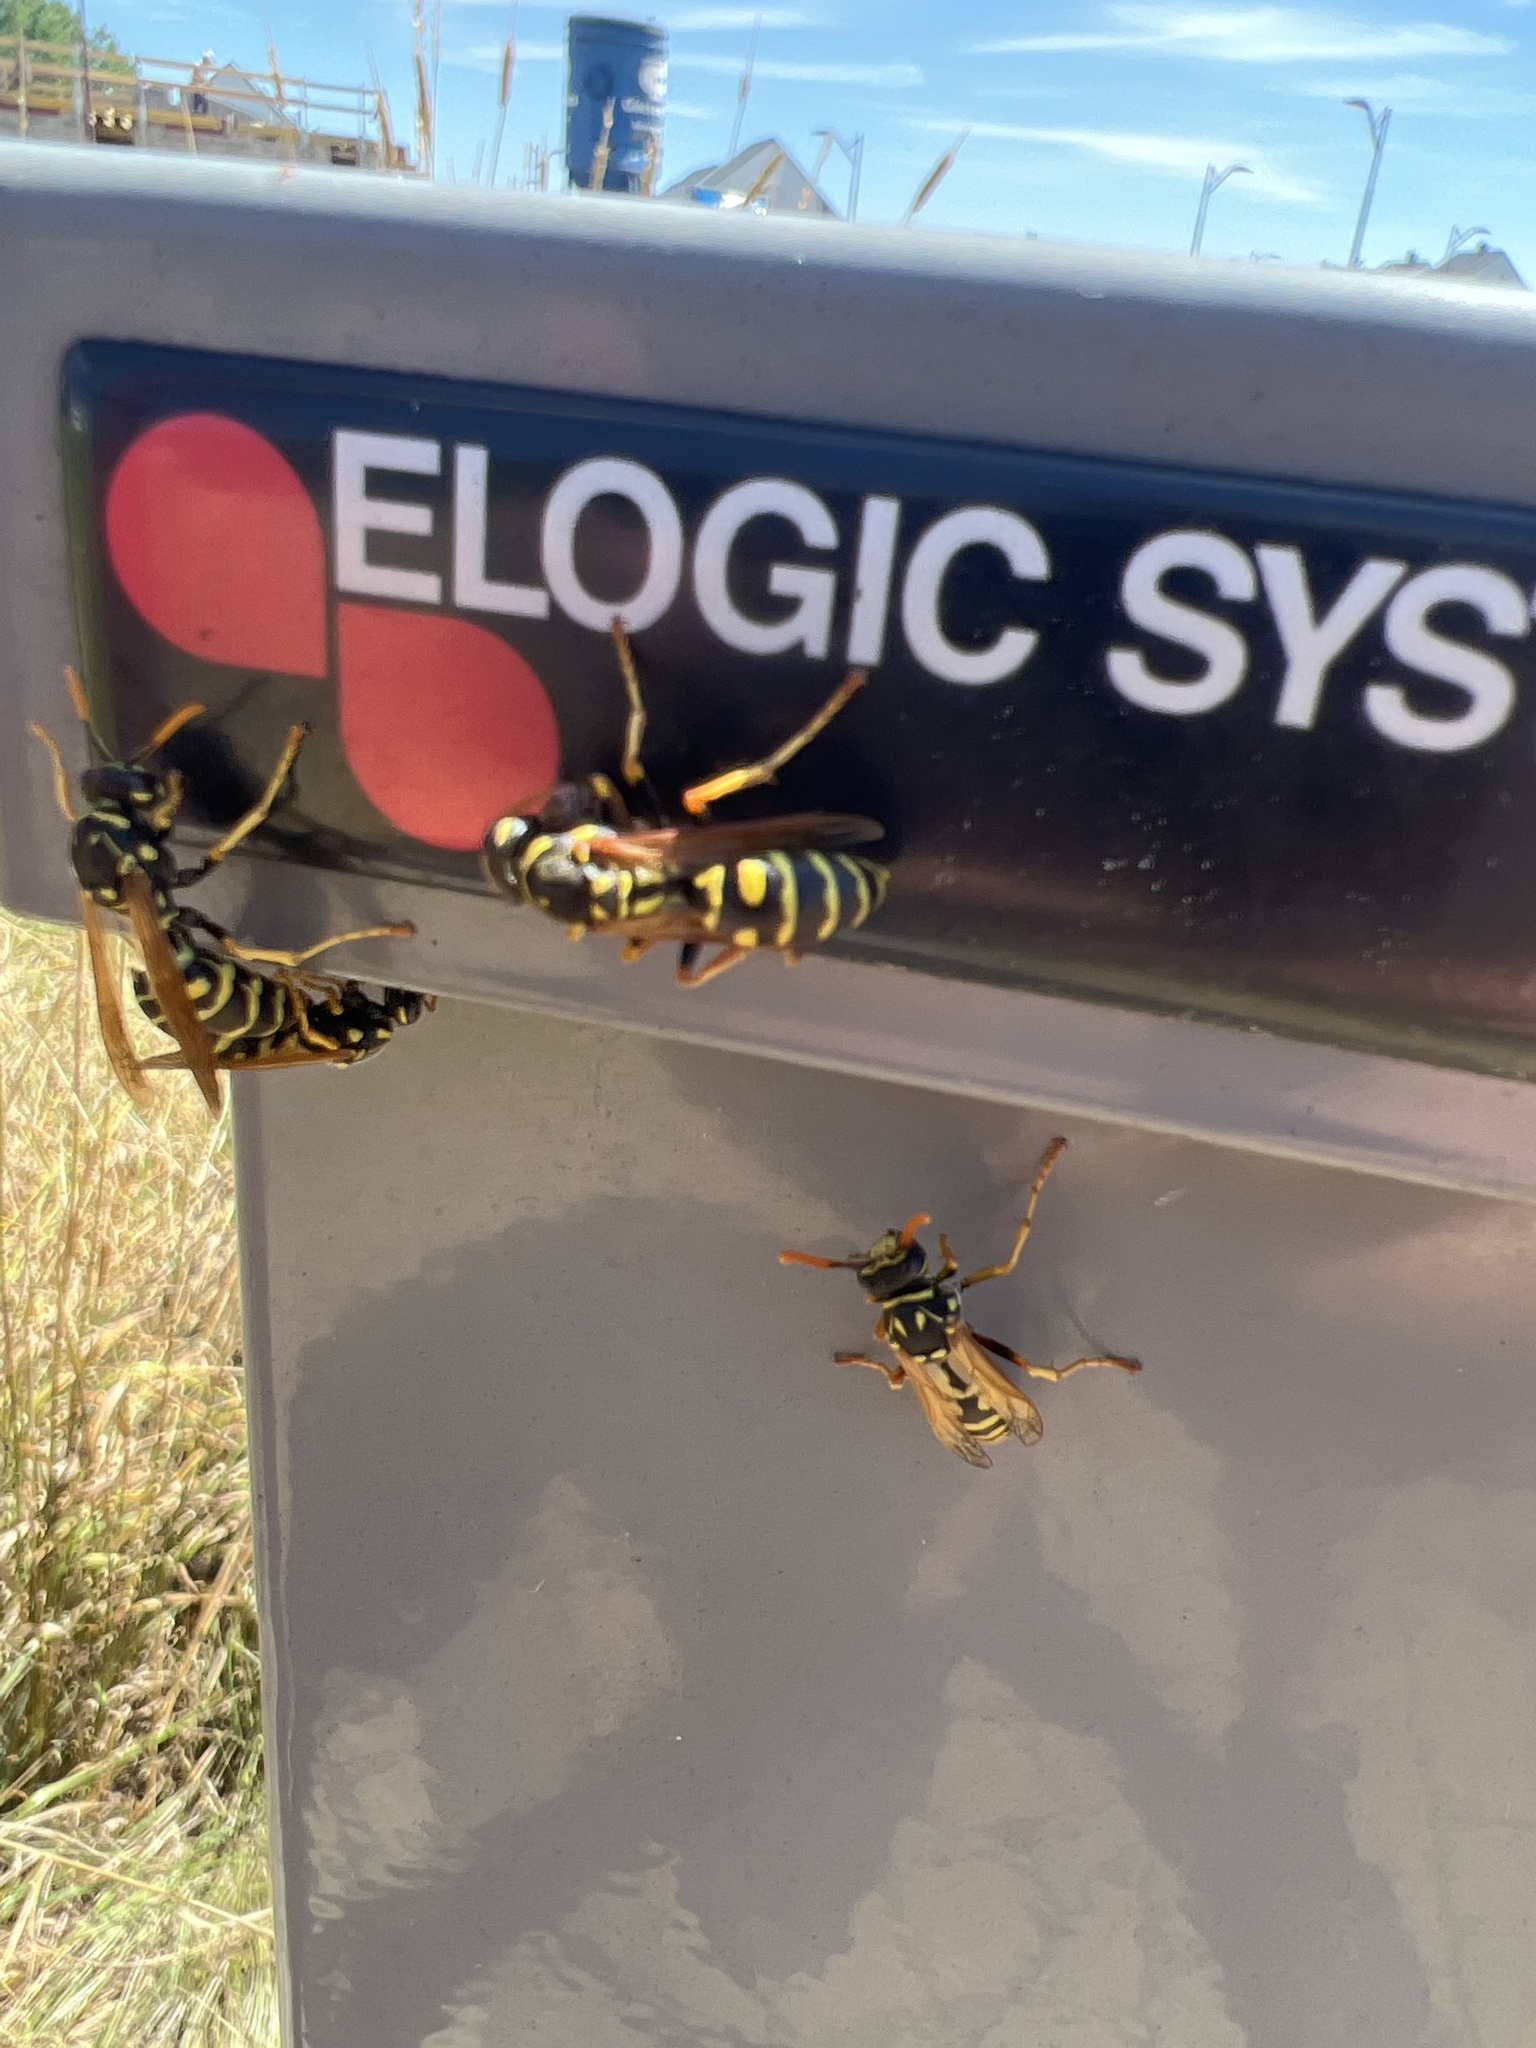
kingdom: Animalia
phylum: Arthropoda
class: Insecta
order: Hymenoptera
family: Eumenidae
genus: Polistes
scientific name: Polistes dominula
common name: Paper wasp
